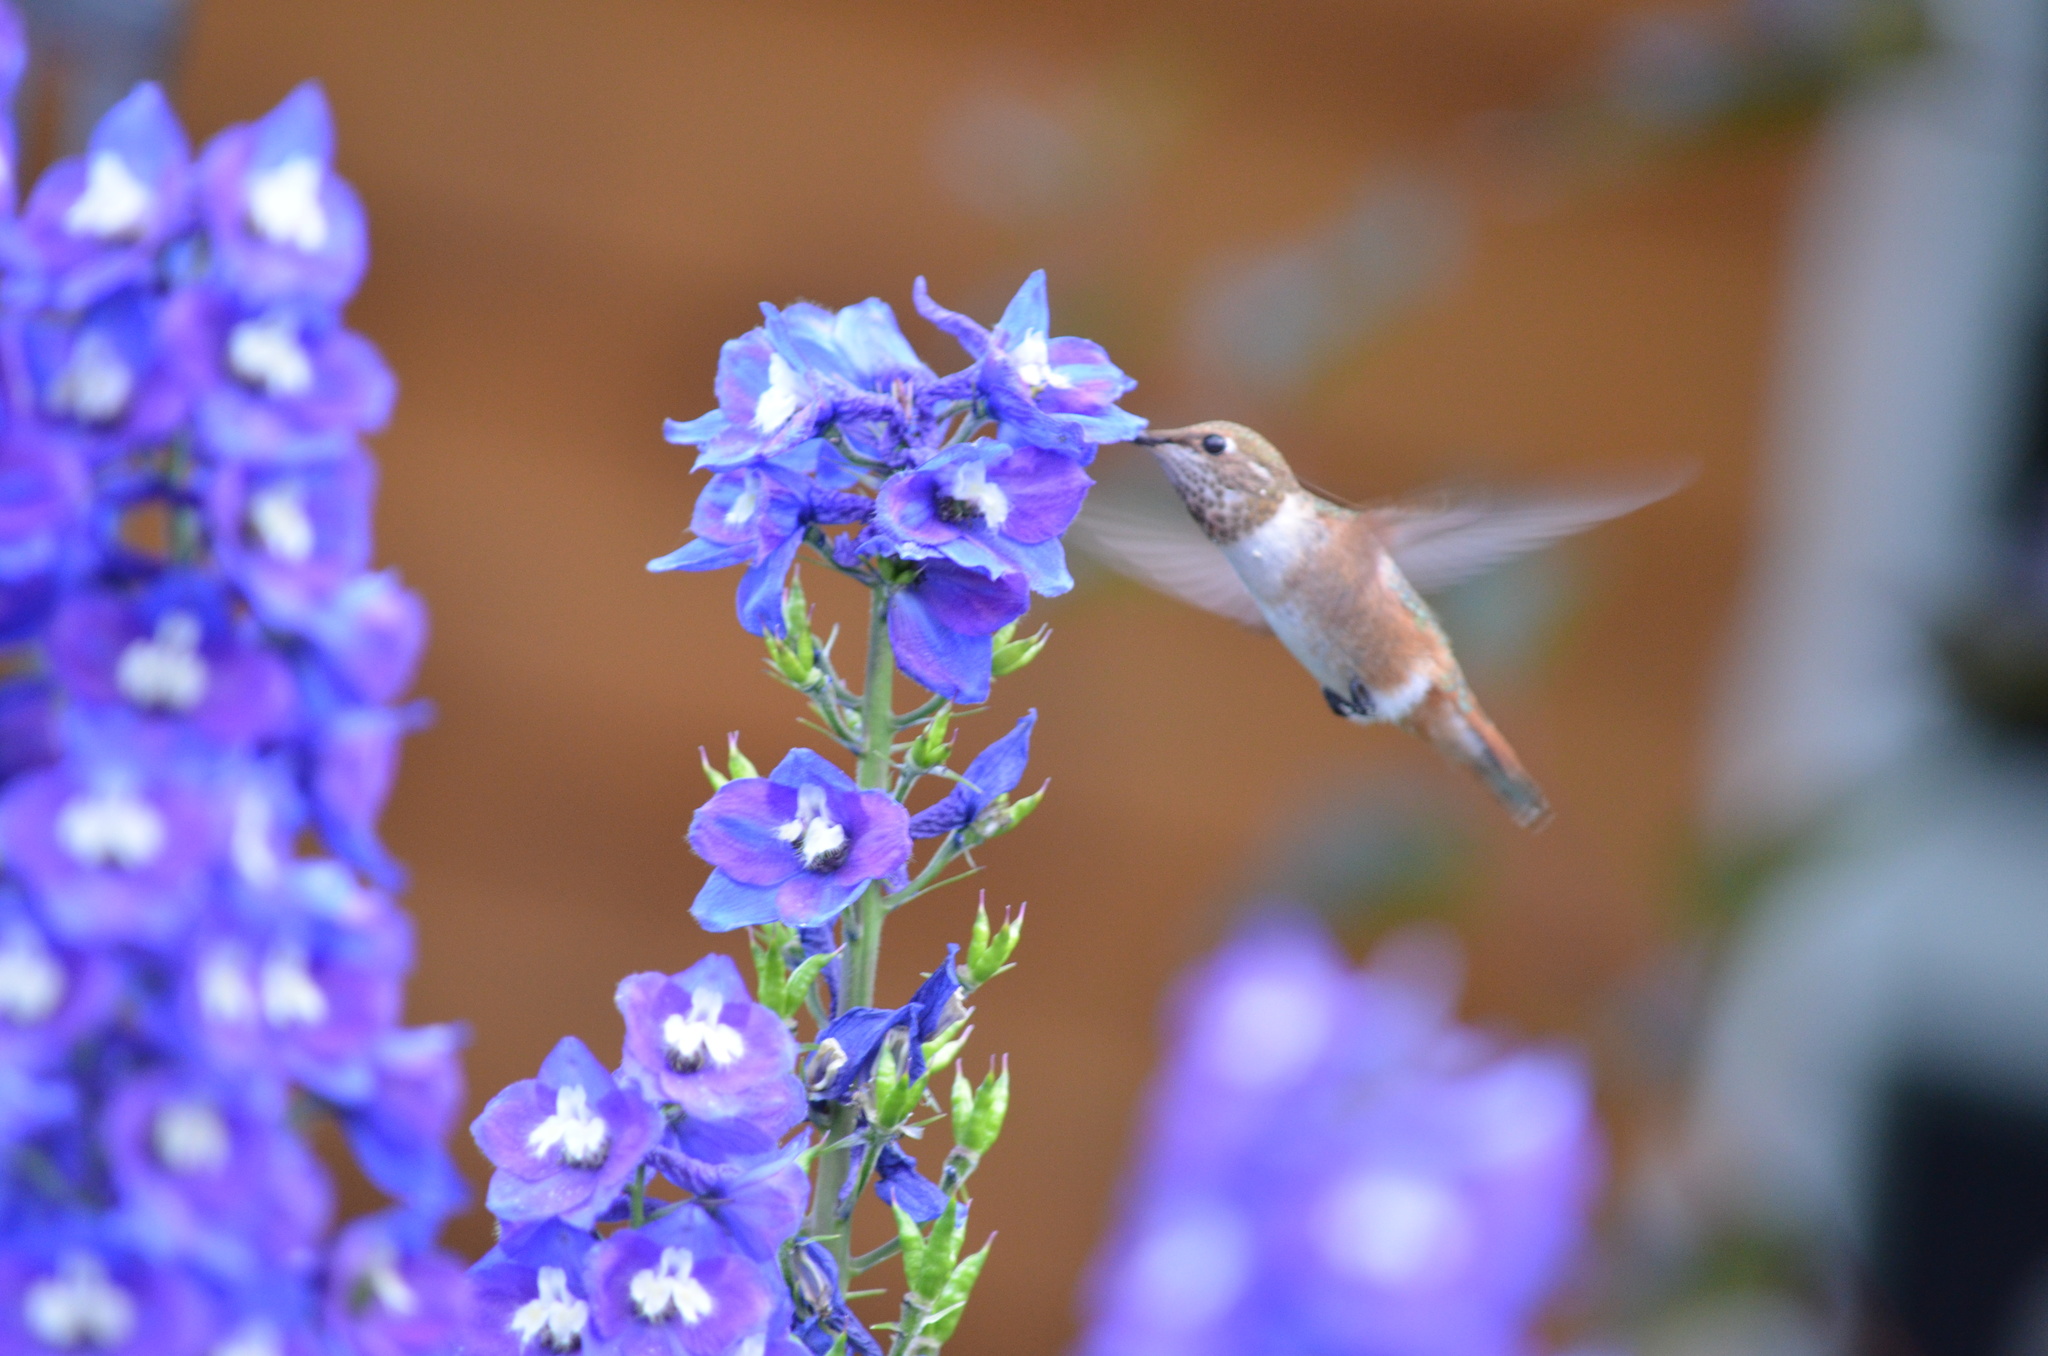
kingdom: Animalia
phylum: Chordata
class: Aves
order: Apodiformes
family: Trochilidae
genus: Selasphorus
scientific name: Selasphorus rufus
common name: Rufous hummingbird
